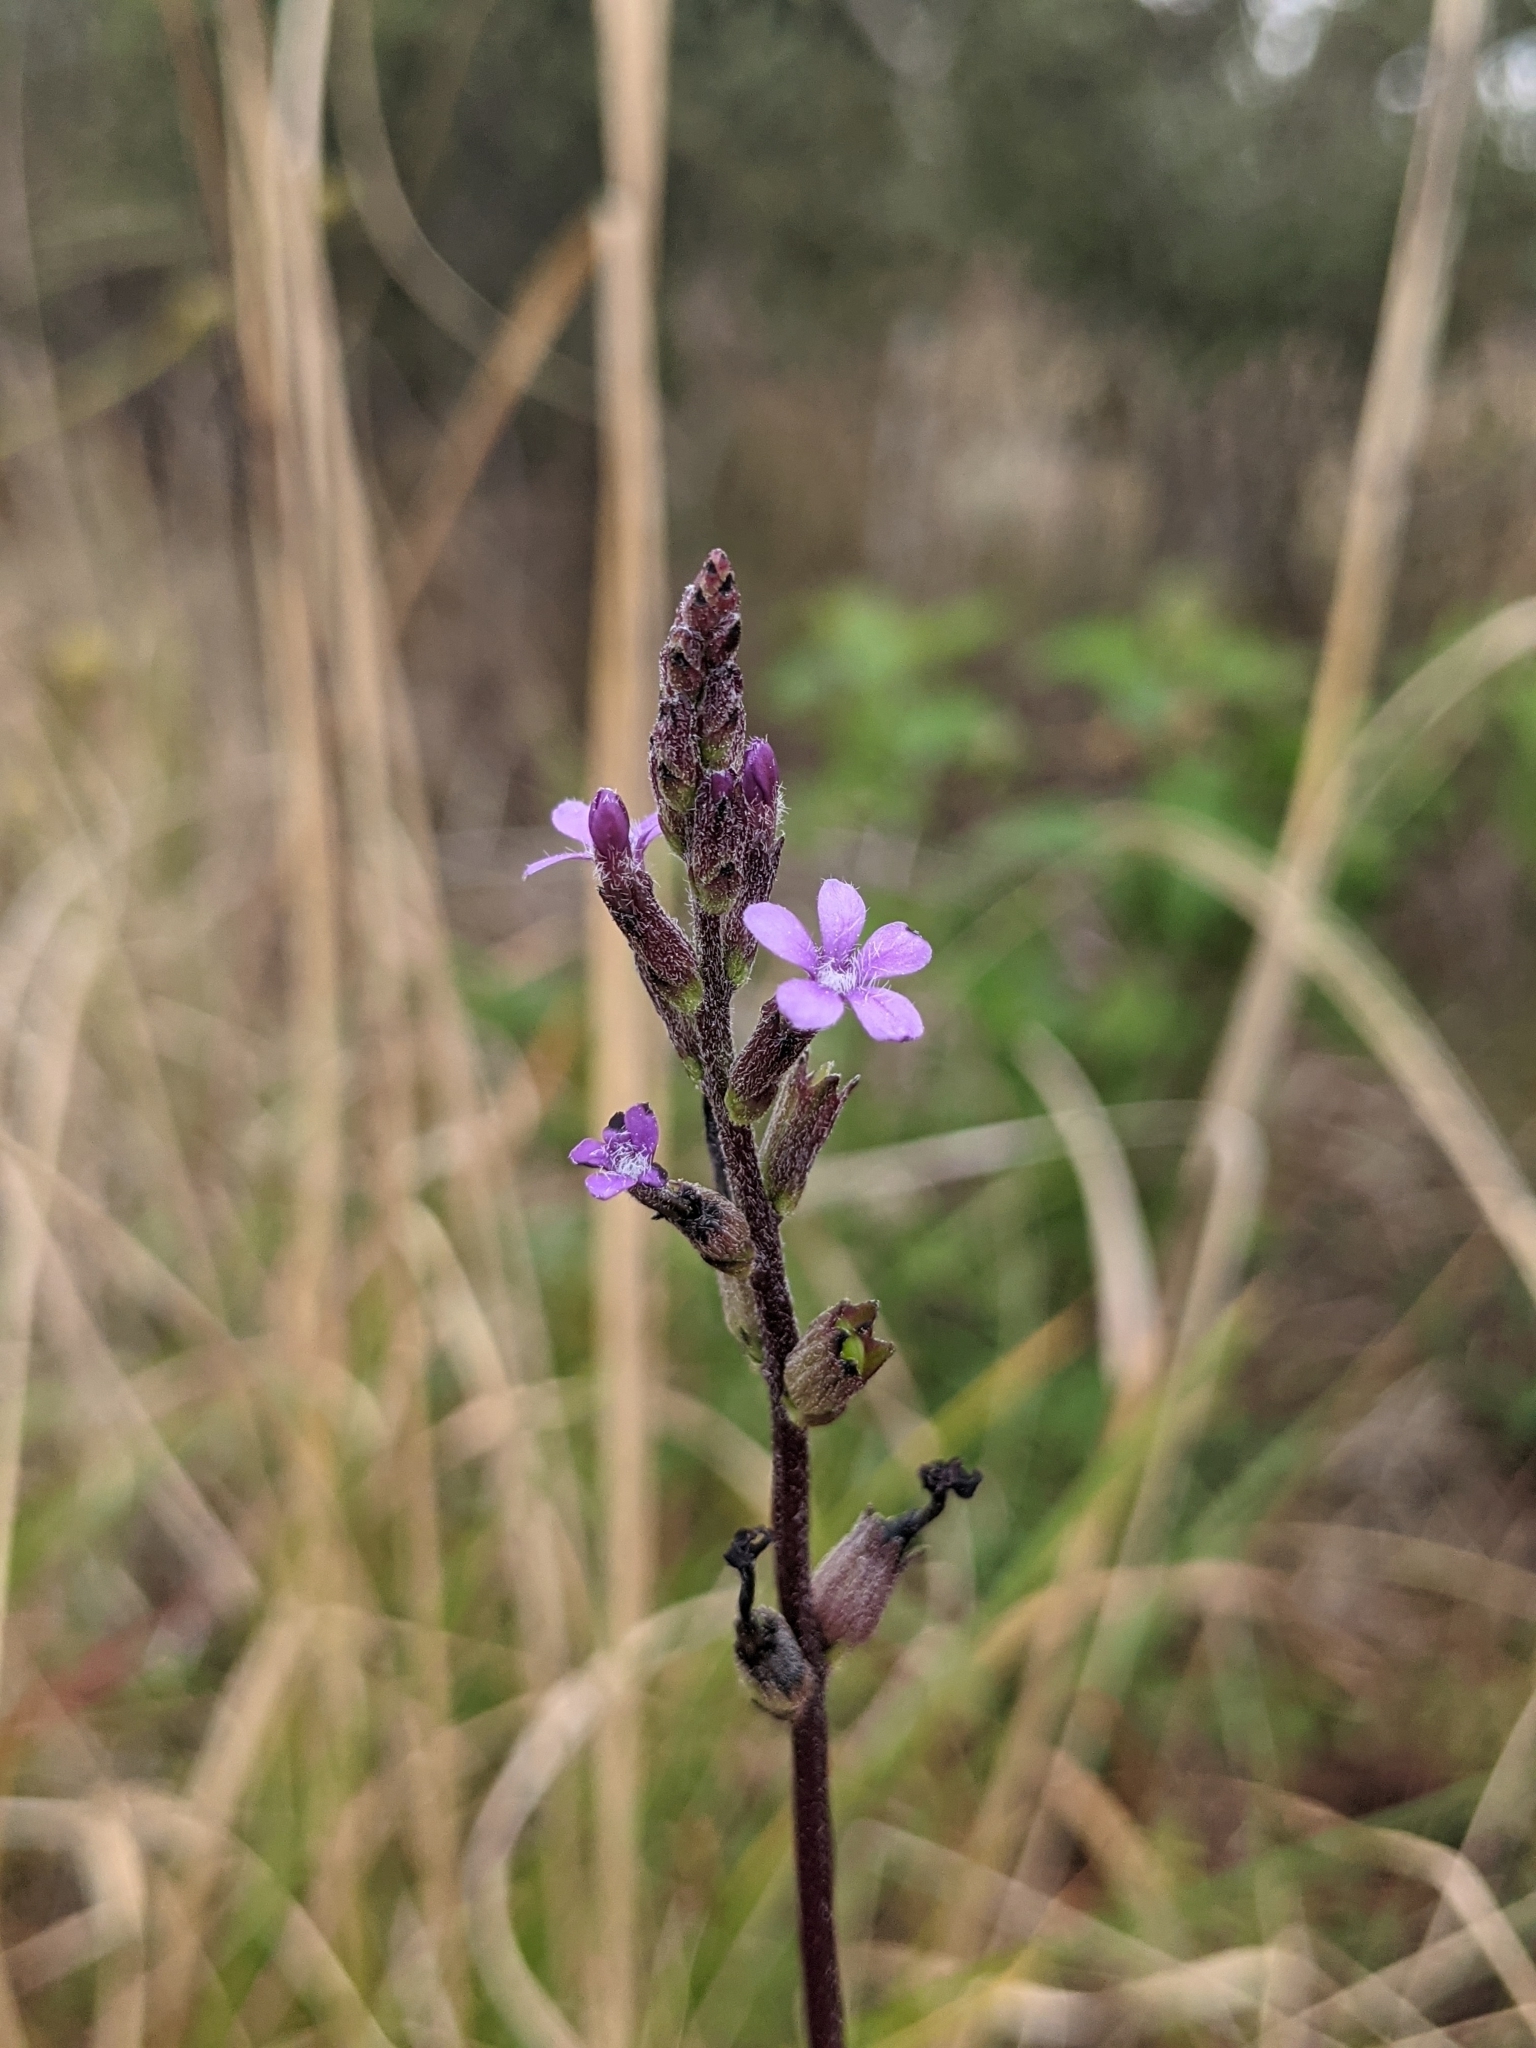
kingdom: Plantae
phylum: Tracheophyta
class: Magnoliopsida
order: Lamiales
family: Orobanchaceae
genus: Buchnera
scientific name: Buchnera floridana
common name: Florida bluehearts
